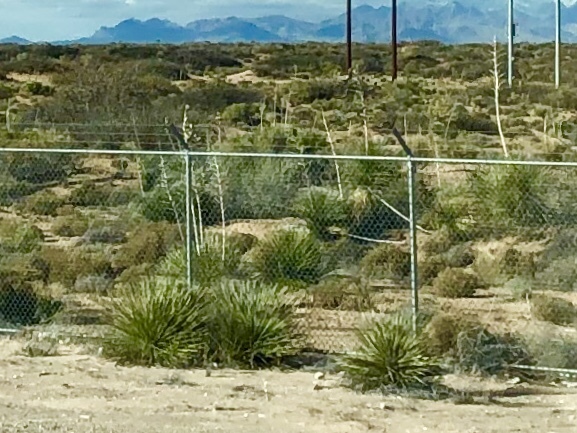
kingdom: Plantae
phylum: Tracheophyta
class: Liliopsida
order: Asparagales
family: Asparagaceae
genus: Yucca
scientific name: Yucca elata
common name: Palmella
